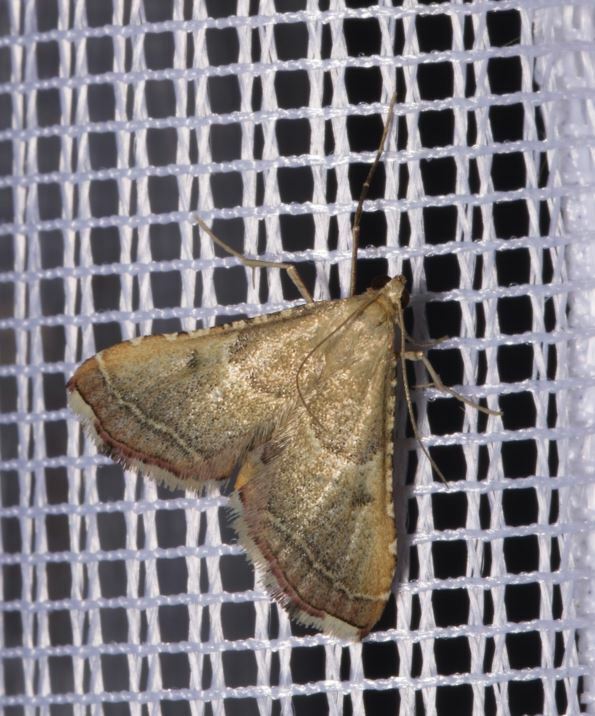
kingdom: Animalia
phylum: Arthropoda
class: Insecta
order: Lepidoptera
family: Pyralidae
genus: Endotricha
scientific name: Endotricha flammealis
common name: Rosy tabby
